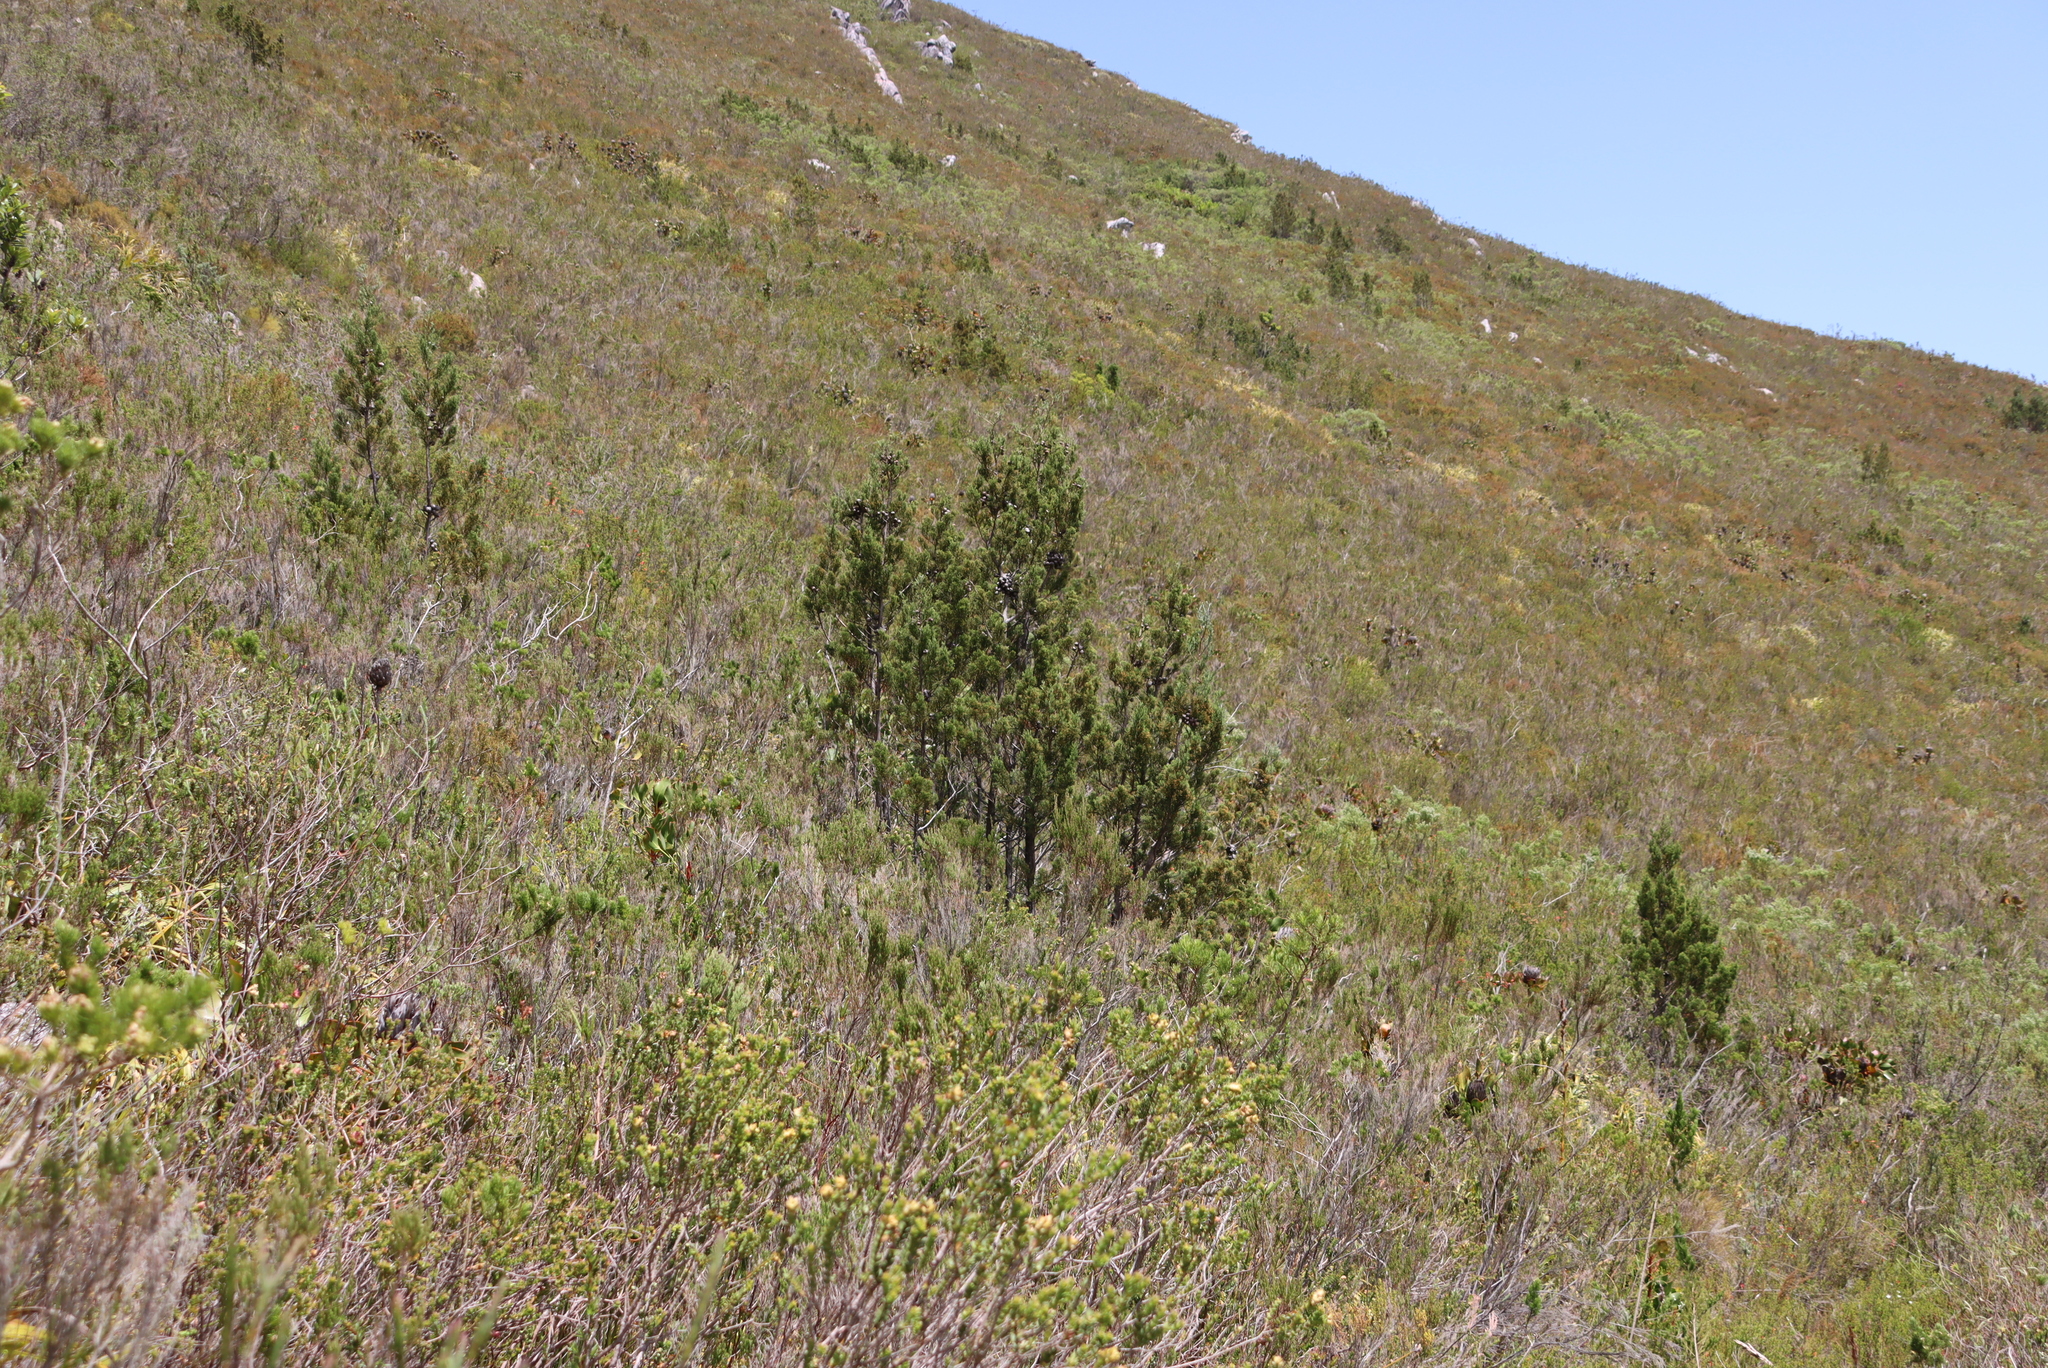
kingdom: Plantae
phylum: Tracheophyta
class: Pinopsida
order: Pinales
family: Cupressaceae
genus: Widdringtonia
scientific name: Widdringtonia nodiflora
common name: Cape cypress
